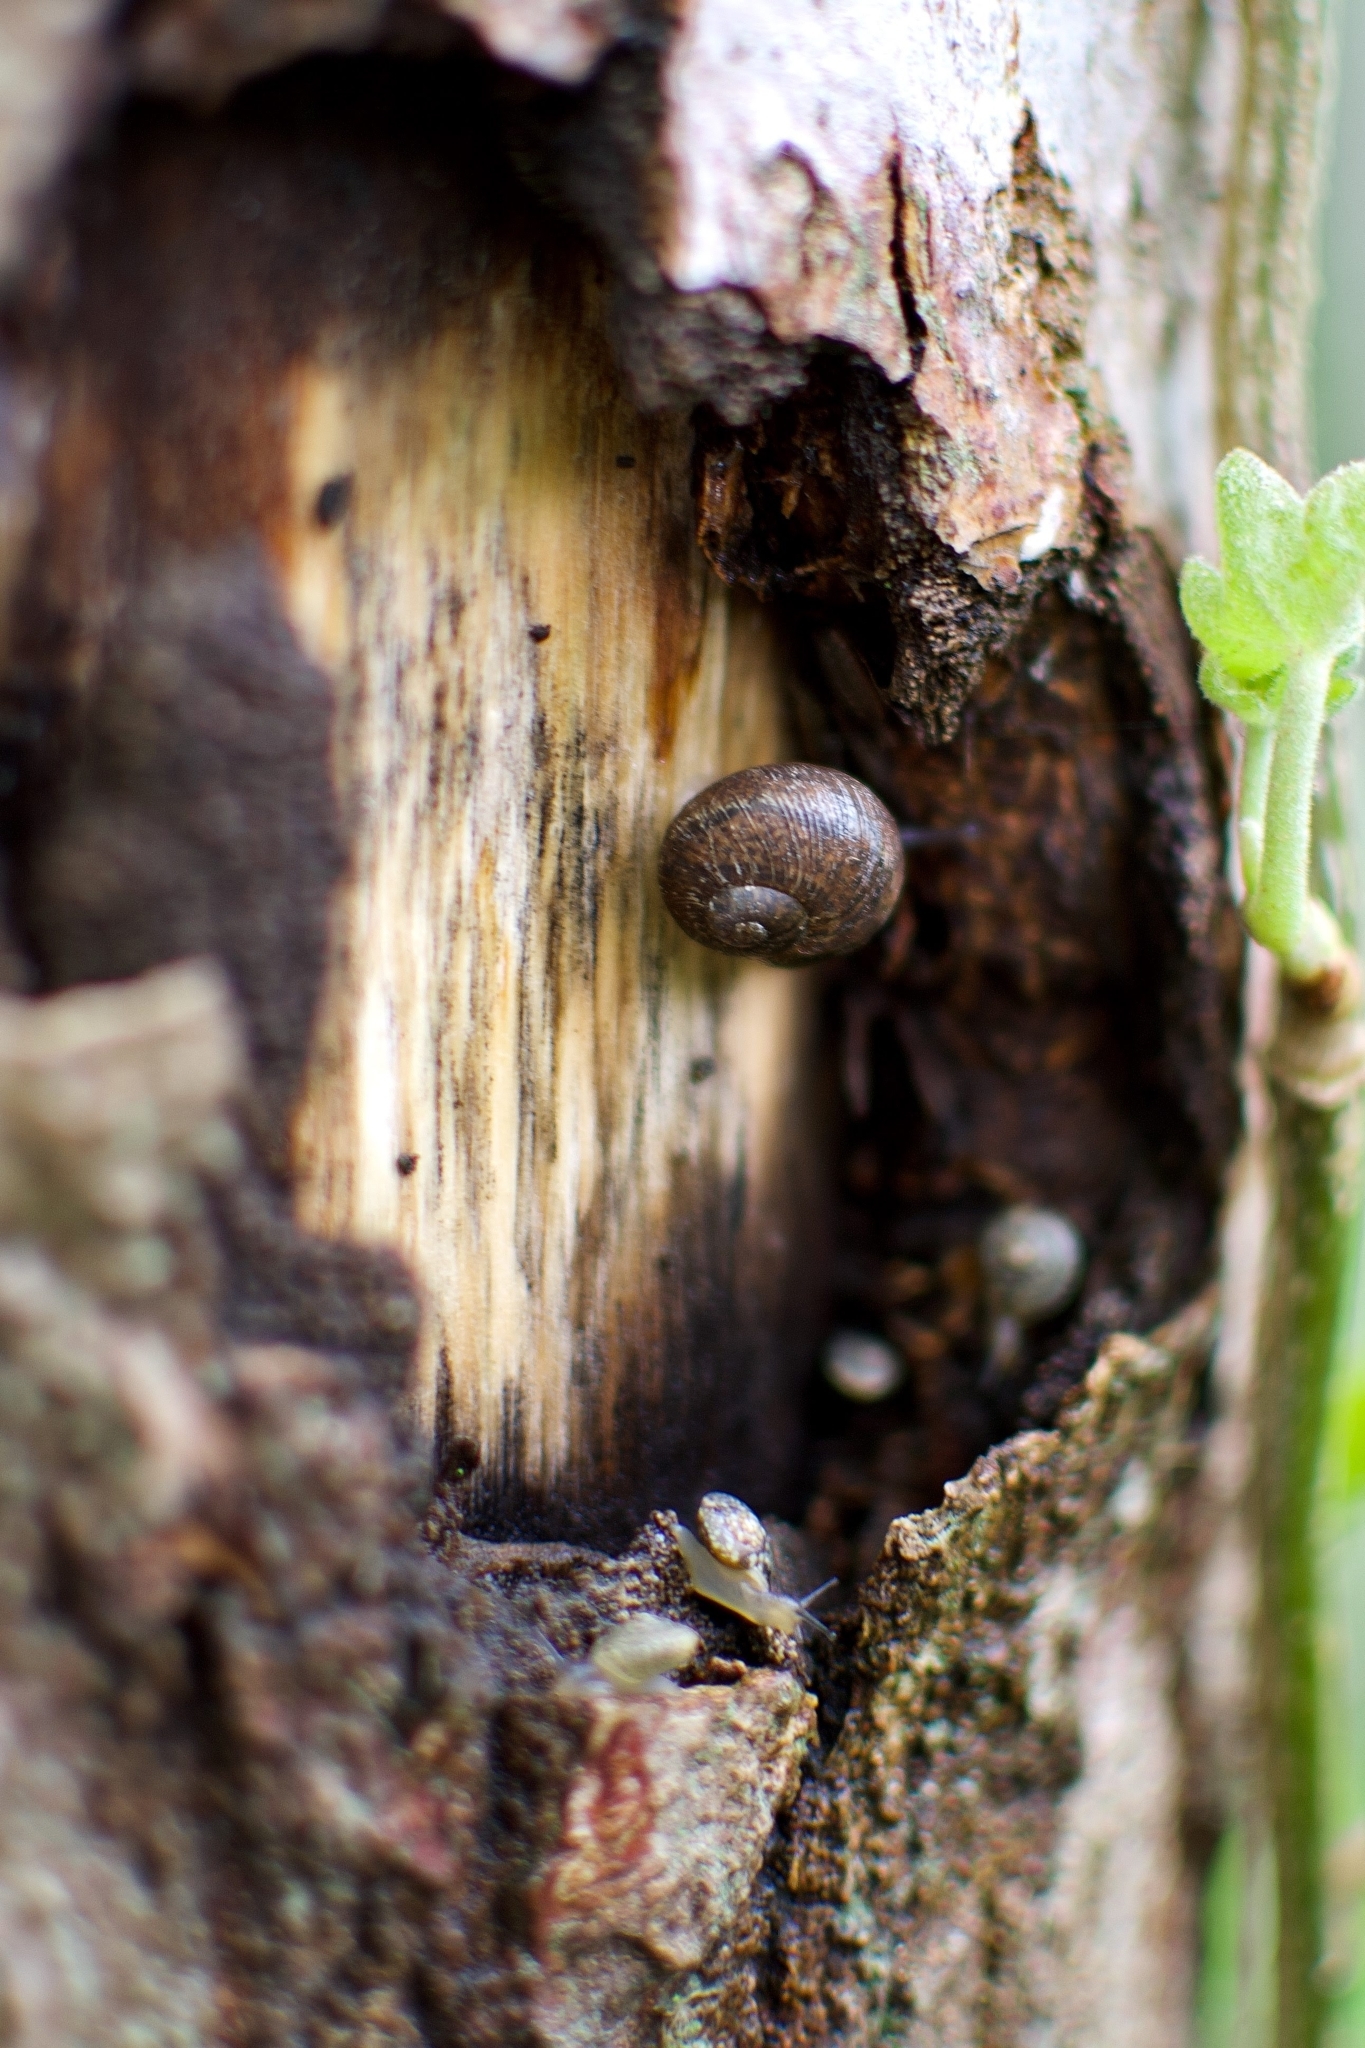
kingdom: Animalia
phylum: Mollusca
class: Gastropoda
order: Stylommatophora
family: Helicidae
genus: Cornu
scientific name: Cornu aspersum
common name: Brown garden snail
